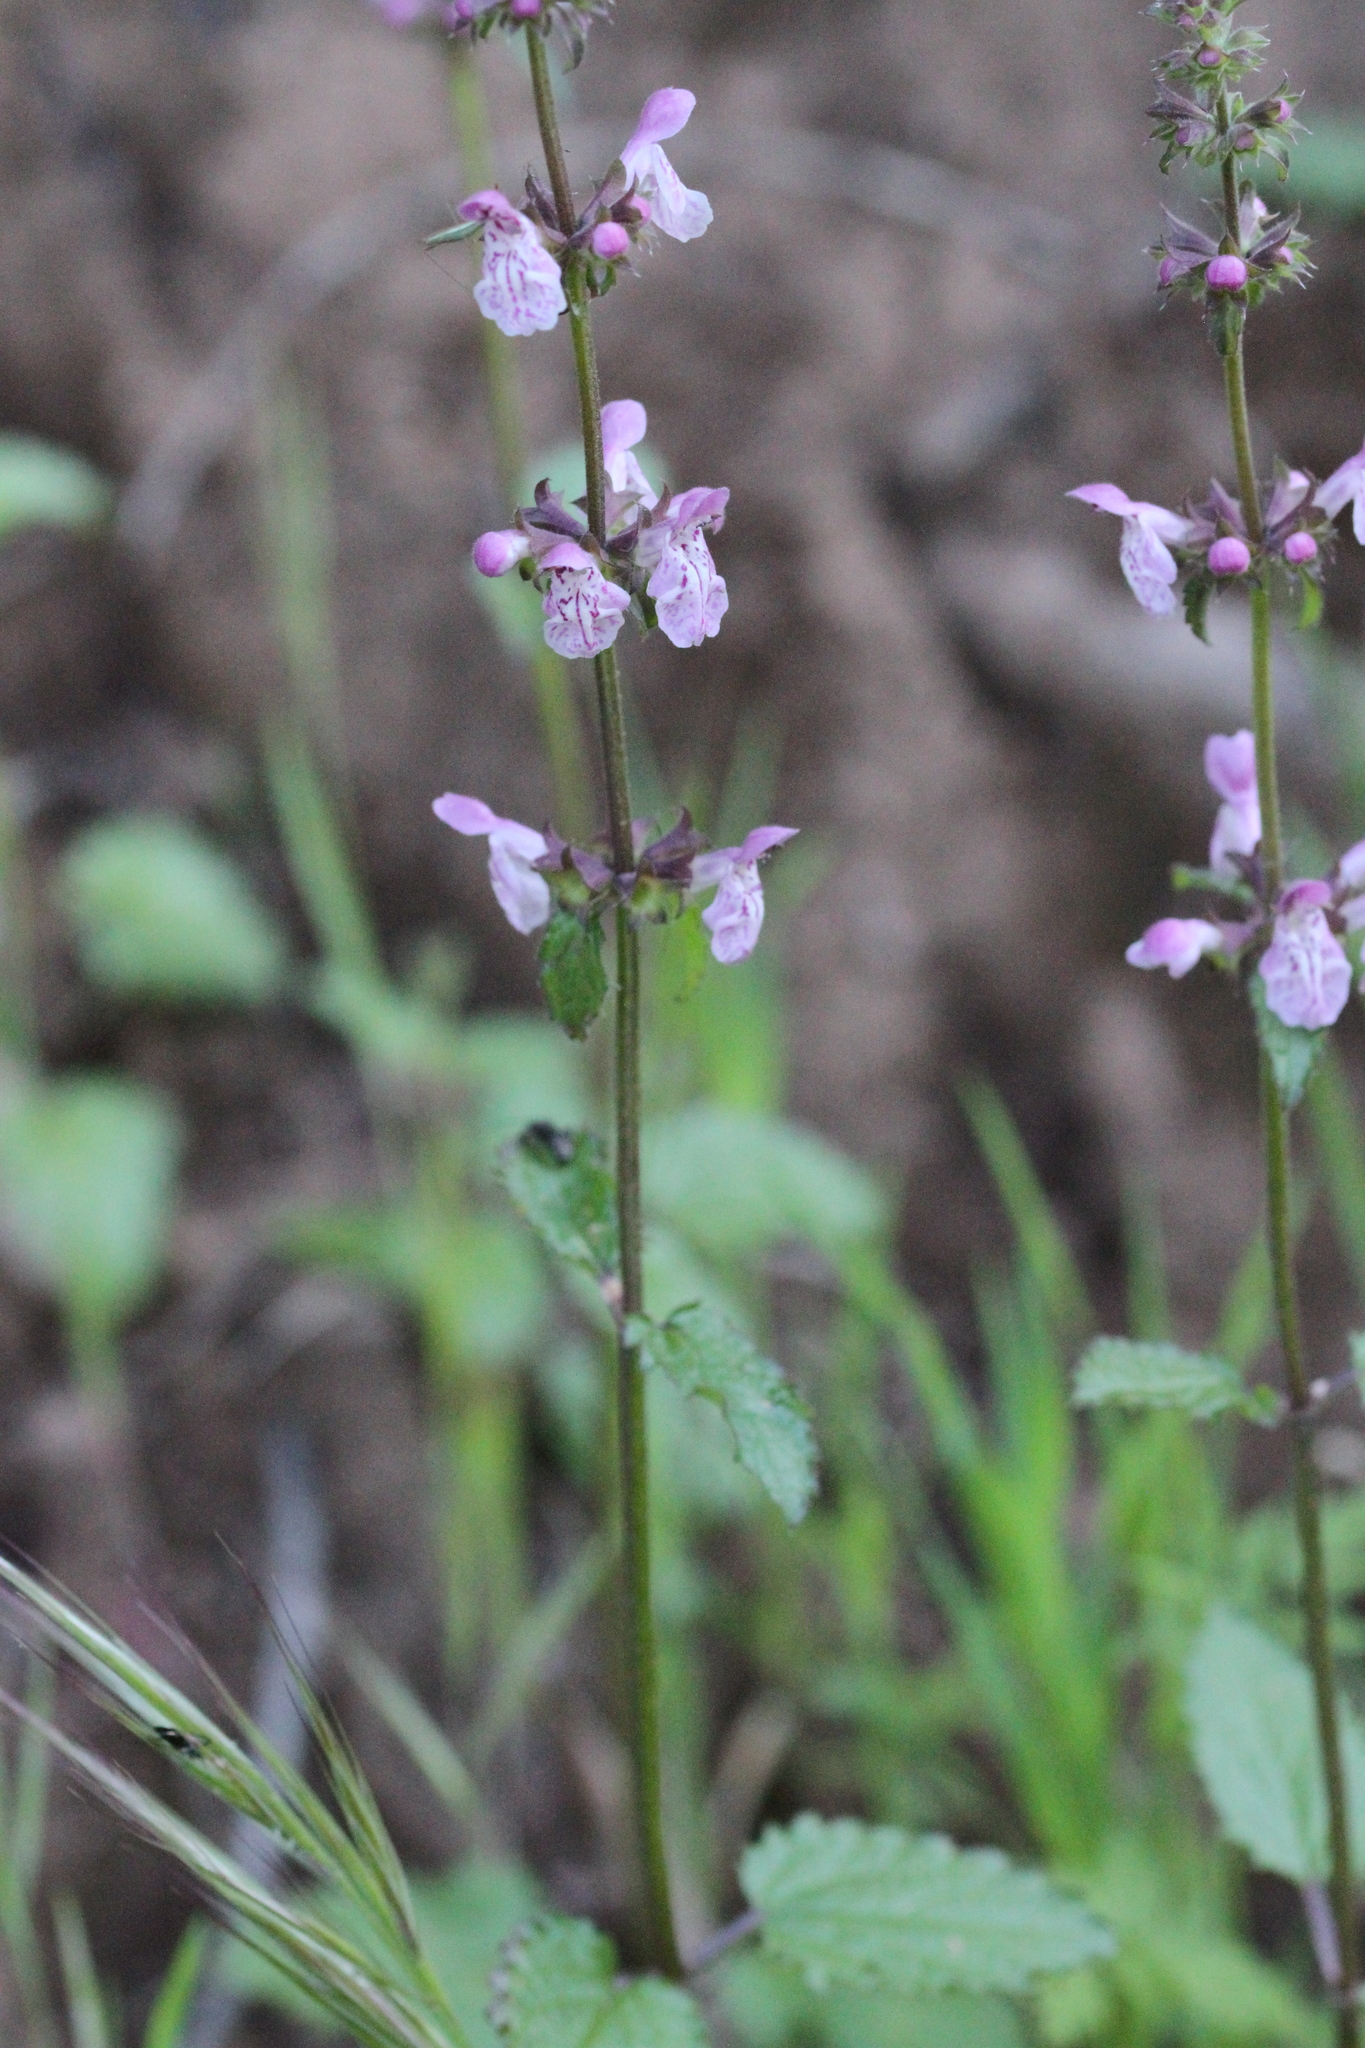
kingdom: Plantae
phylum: Tracheophyta
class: Magnoliopsida
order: Lamiales
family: Lamiaceae
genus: Stachys
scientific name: Stachys bullata
